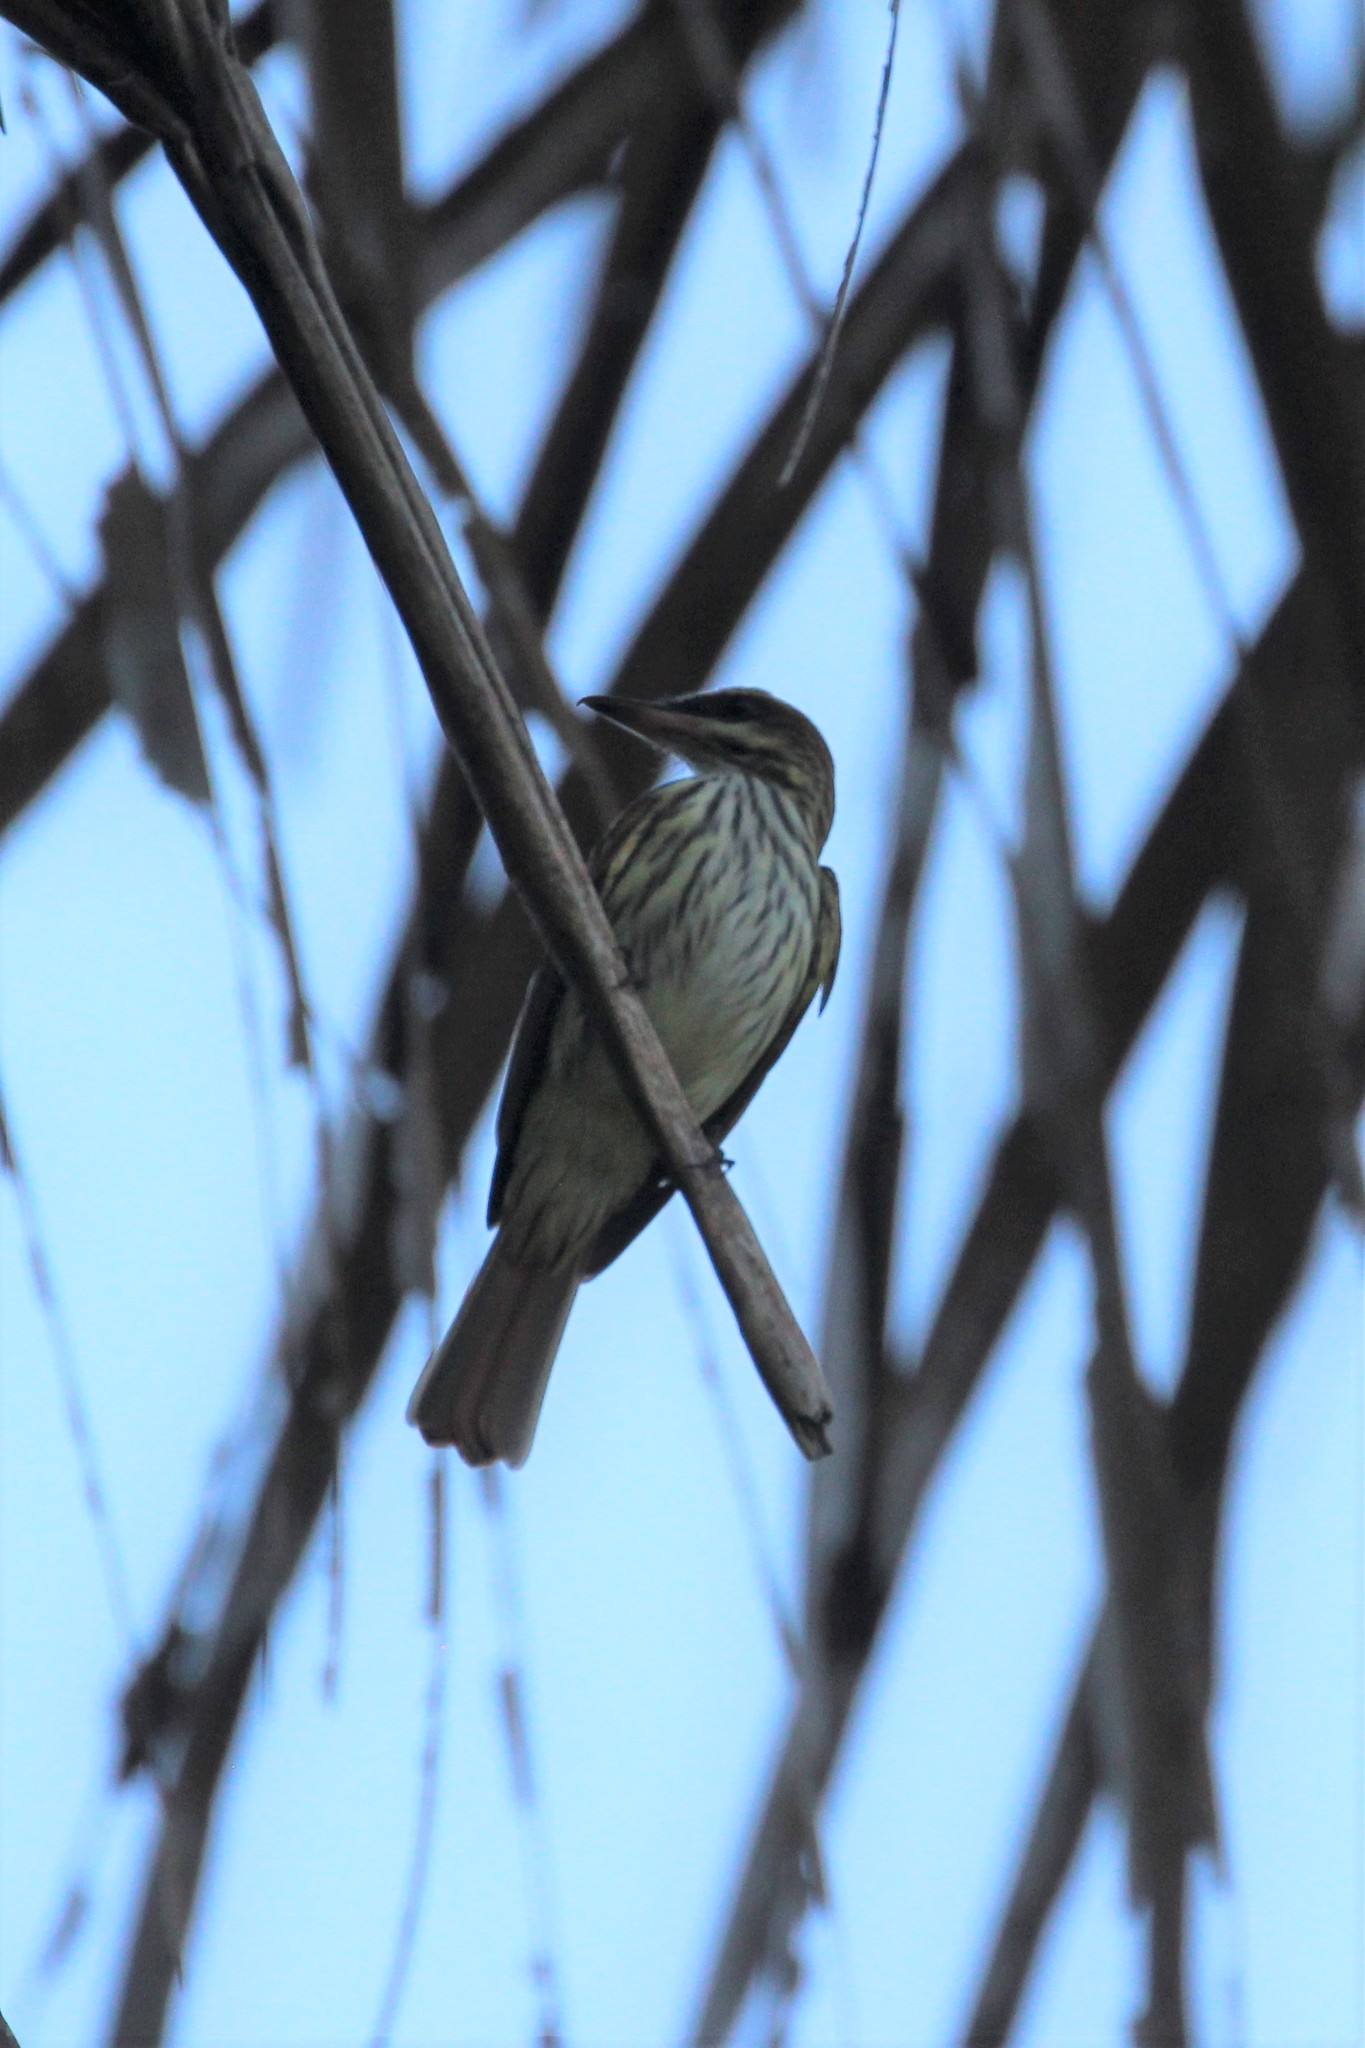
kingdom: Animalia
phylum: Chordata
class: Aves
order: Passeriformes
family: Tyrannidae
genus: Myiodynastes
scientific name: Myiodynastes maculatus
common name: Streaked flycatcher
